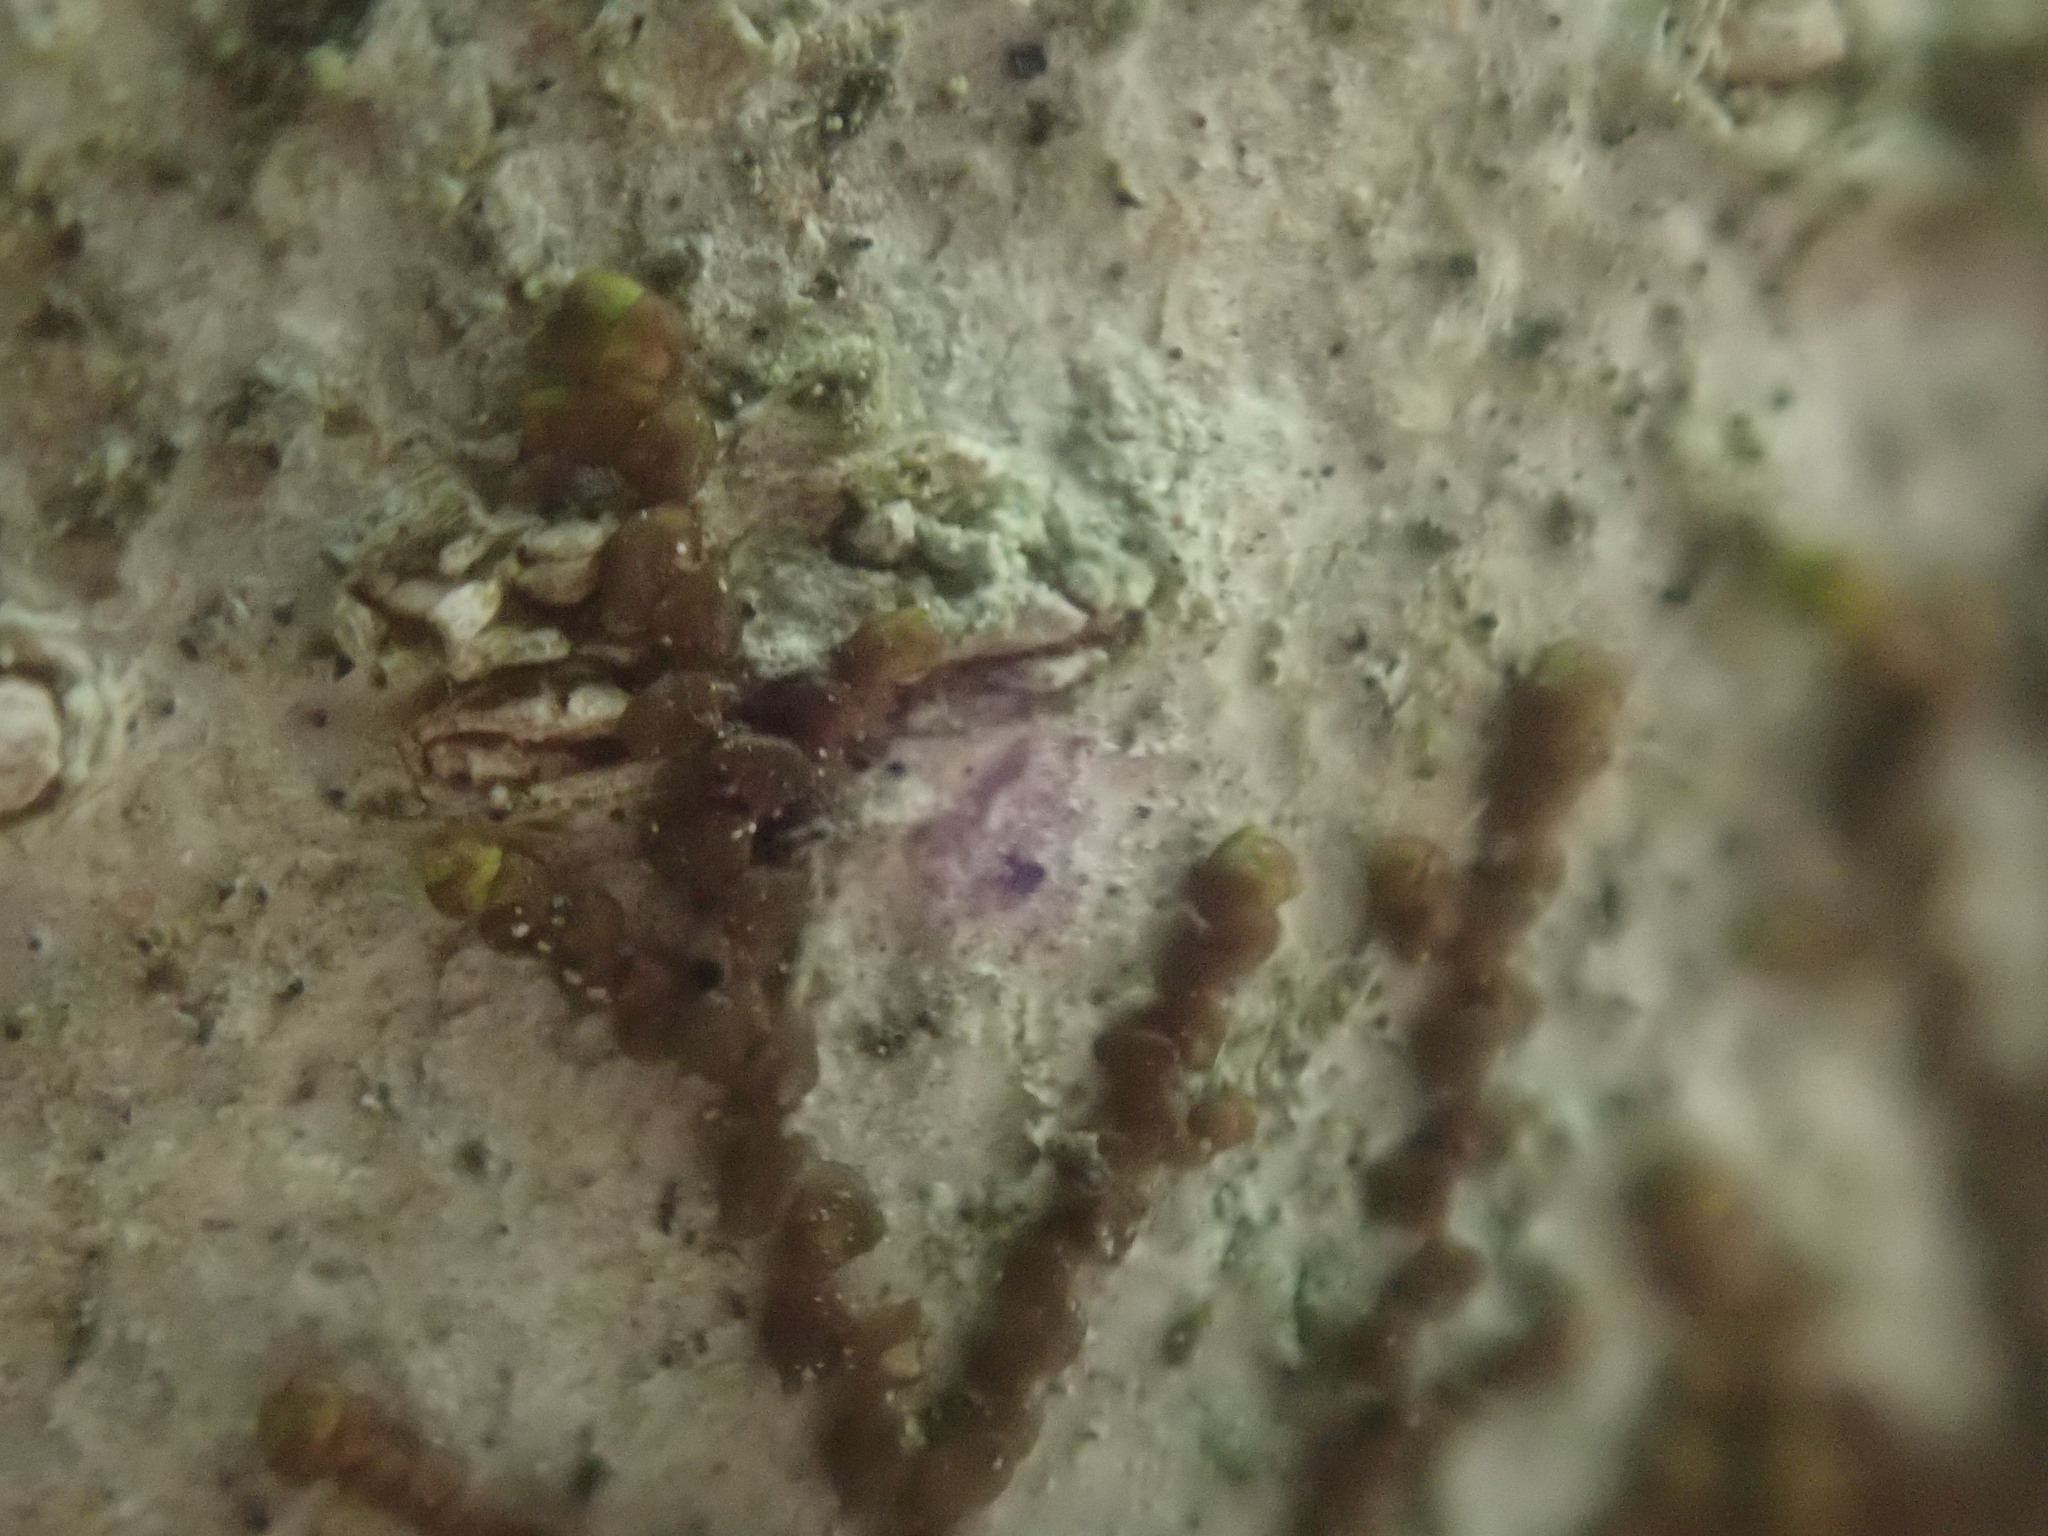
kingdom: Plantae
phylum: Marchantiophyta
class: Jungermanniopsida
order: Porellales
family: Frullaniaceae
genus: Frullania
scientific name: Frullania
